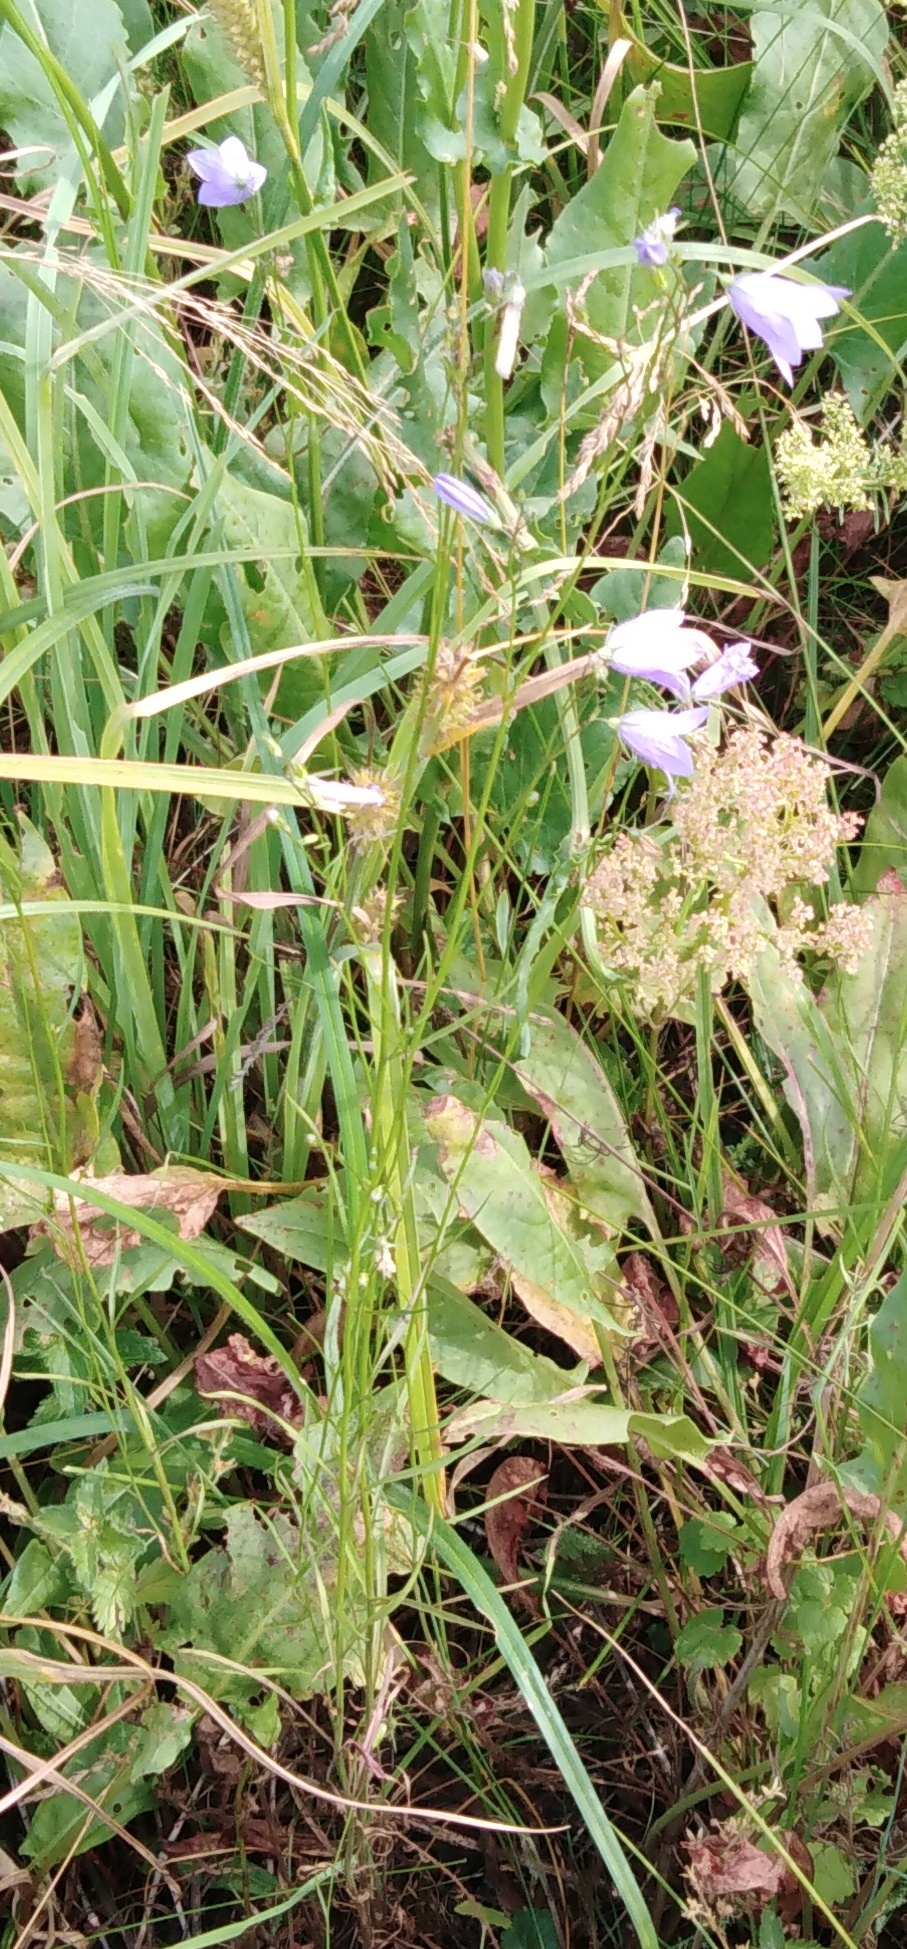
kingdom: Plantae
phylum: Tracheophyta
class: Magnoliopsida
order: Asterales
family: Campanulaceae
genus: Campanula
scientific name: Campanula rotundifolia
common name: Harebell
